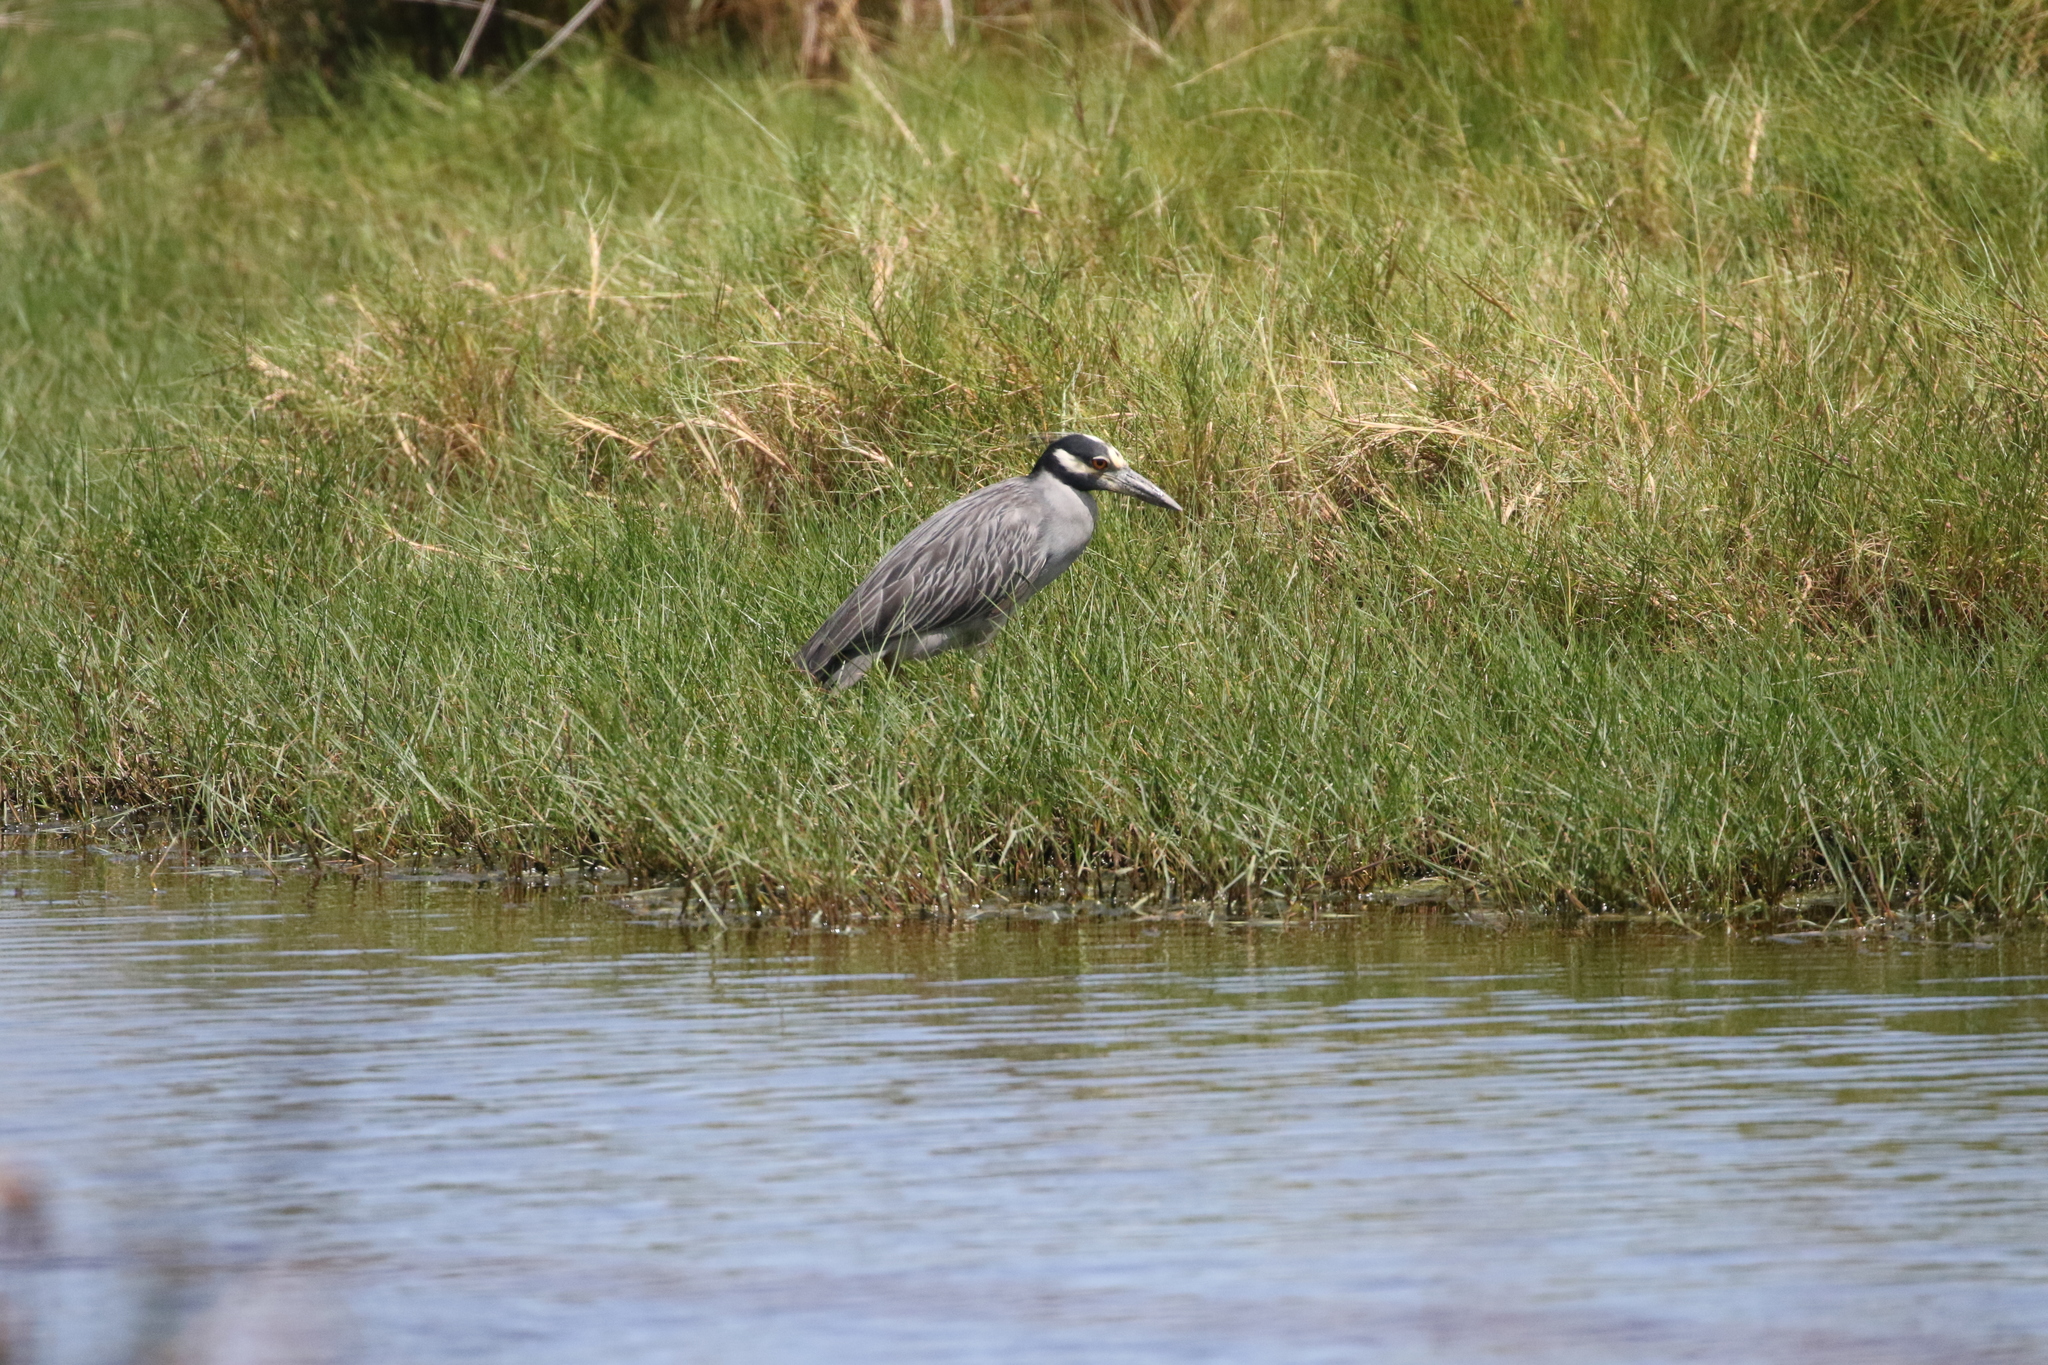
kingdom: Animalia
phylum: Chordata
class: Aves
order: Pelecaniformes
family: Ardeidae
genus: Nyctanassa
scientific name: Nyctanassa violacea
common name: Yellow-crowned night heron
